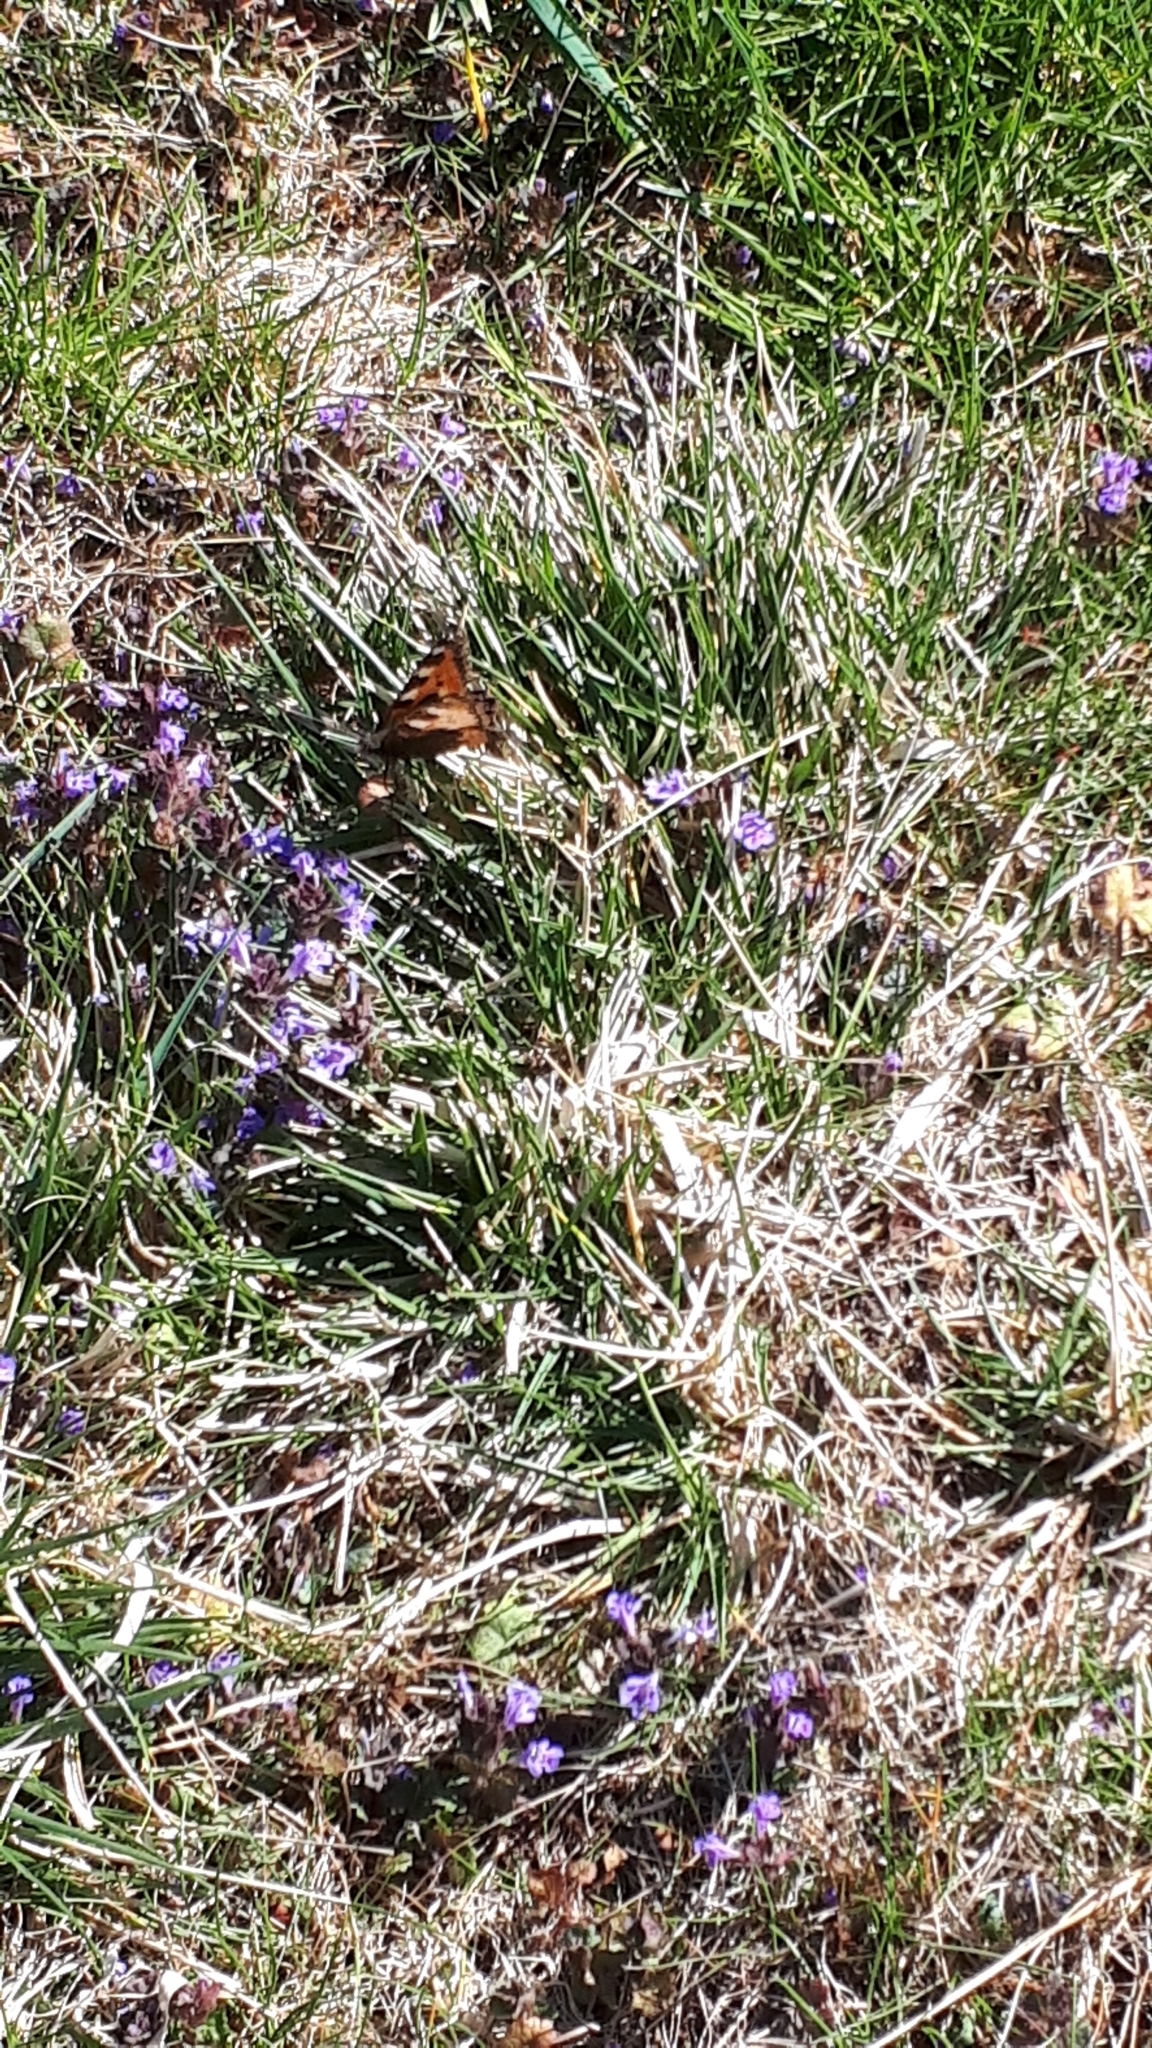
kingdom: Animalia
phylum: Arthropoda
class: Insecta
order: Lepidoptera
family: Nymphalidae
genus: Aglais
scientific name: Aglais urticae
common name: Small tortoiseshell
